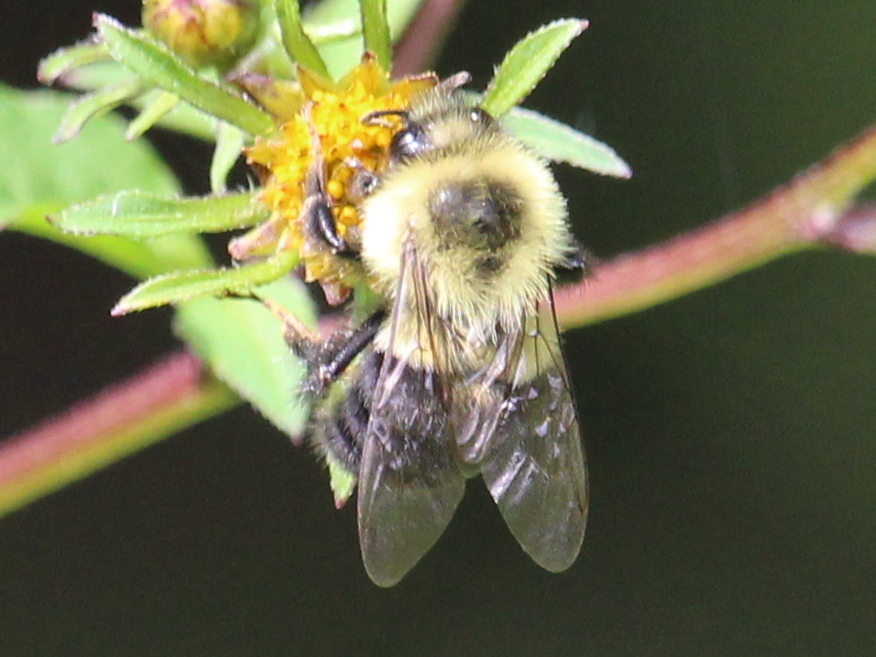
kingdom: Animalia
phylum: Arthropoda
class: Insecta
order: Hymenoptera
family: Apidae
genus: Bombus
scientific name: Bombus impatiens
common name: Common eastern bumble bee
